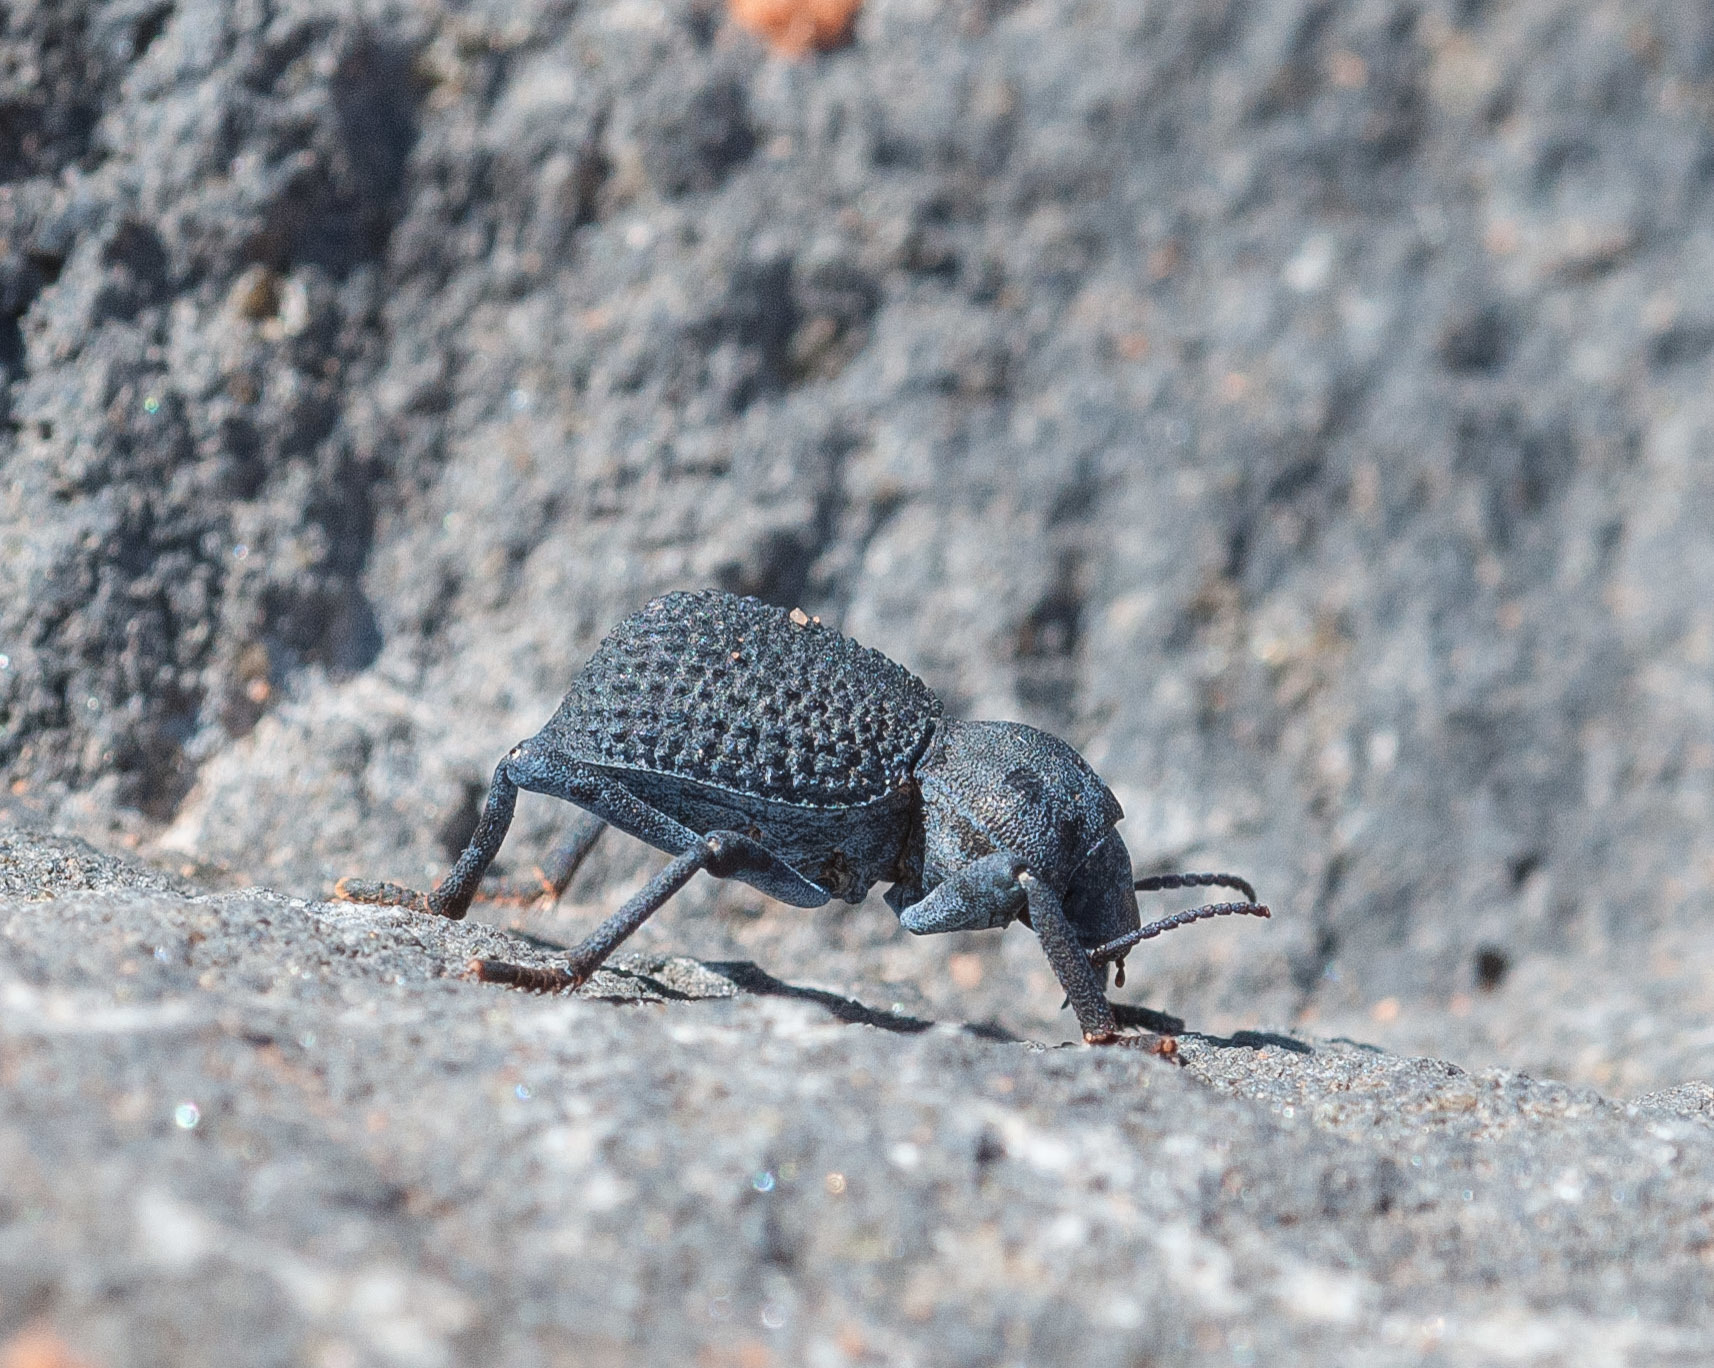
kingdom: Animalia
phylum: Arthropoda
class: Insecta
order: Coleoptera
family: Tenebrionidae
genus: Asbolus
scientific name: Asbolus verrucosus
